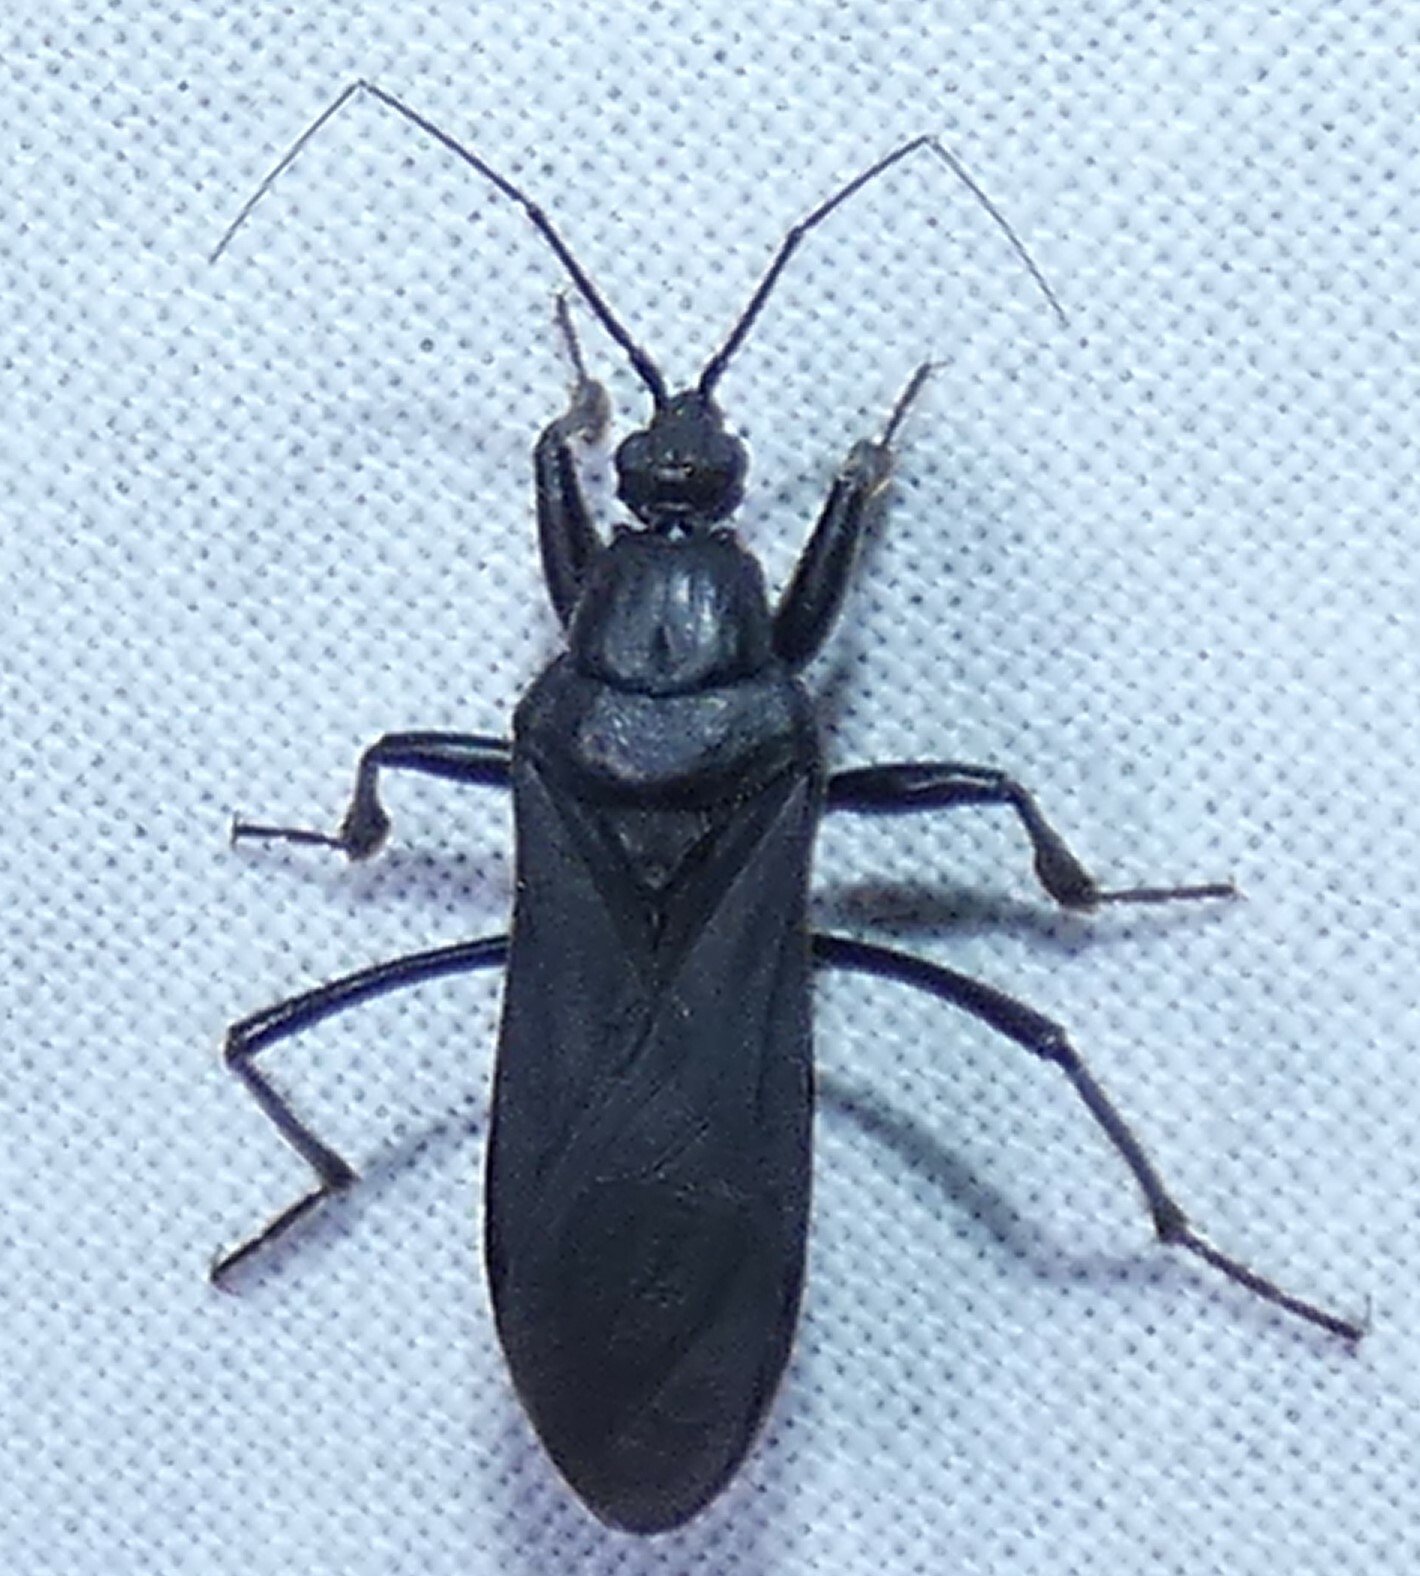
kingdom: Animalia
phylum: Arthropoda
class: Insecta
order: Hemiptera
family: Reduviidae
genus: Melanolestes
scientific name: Melanolestes picipes
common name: Assassin bug
